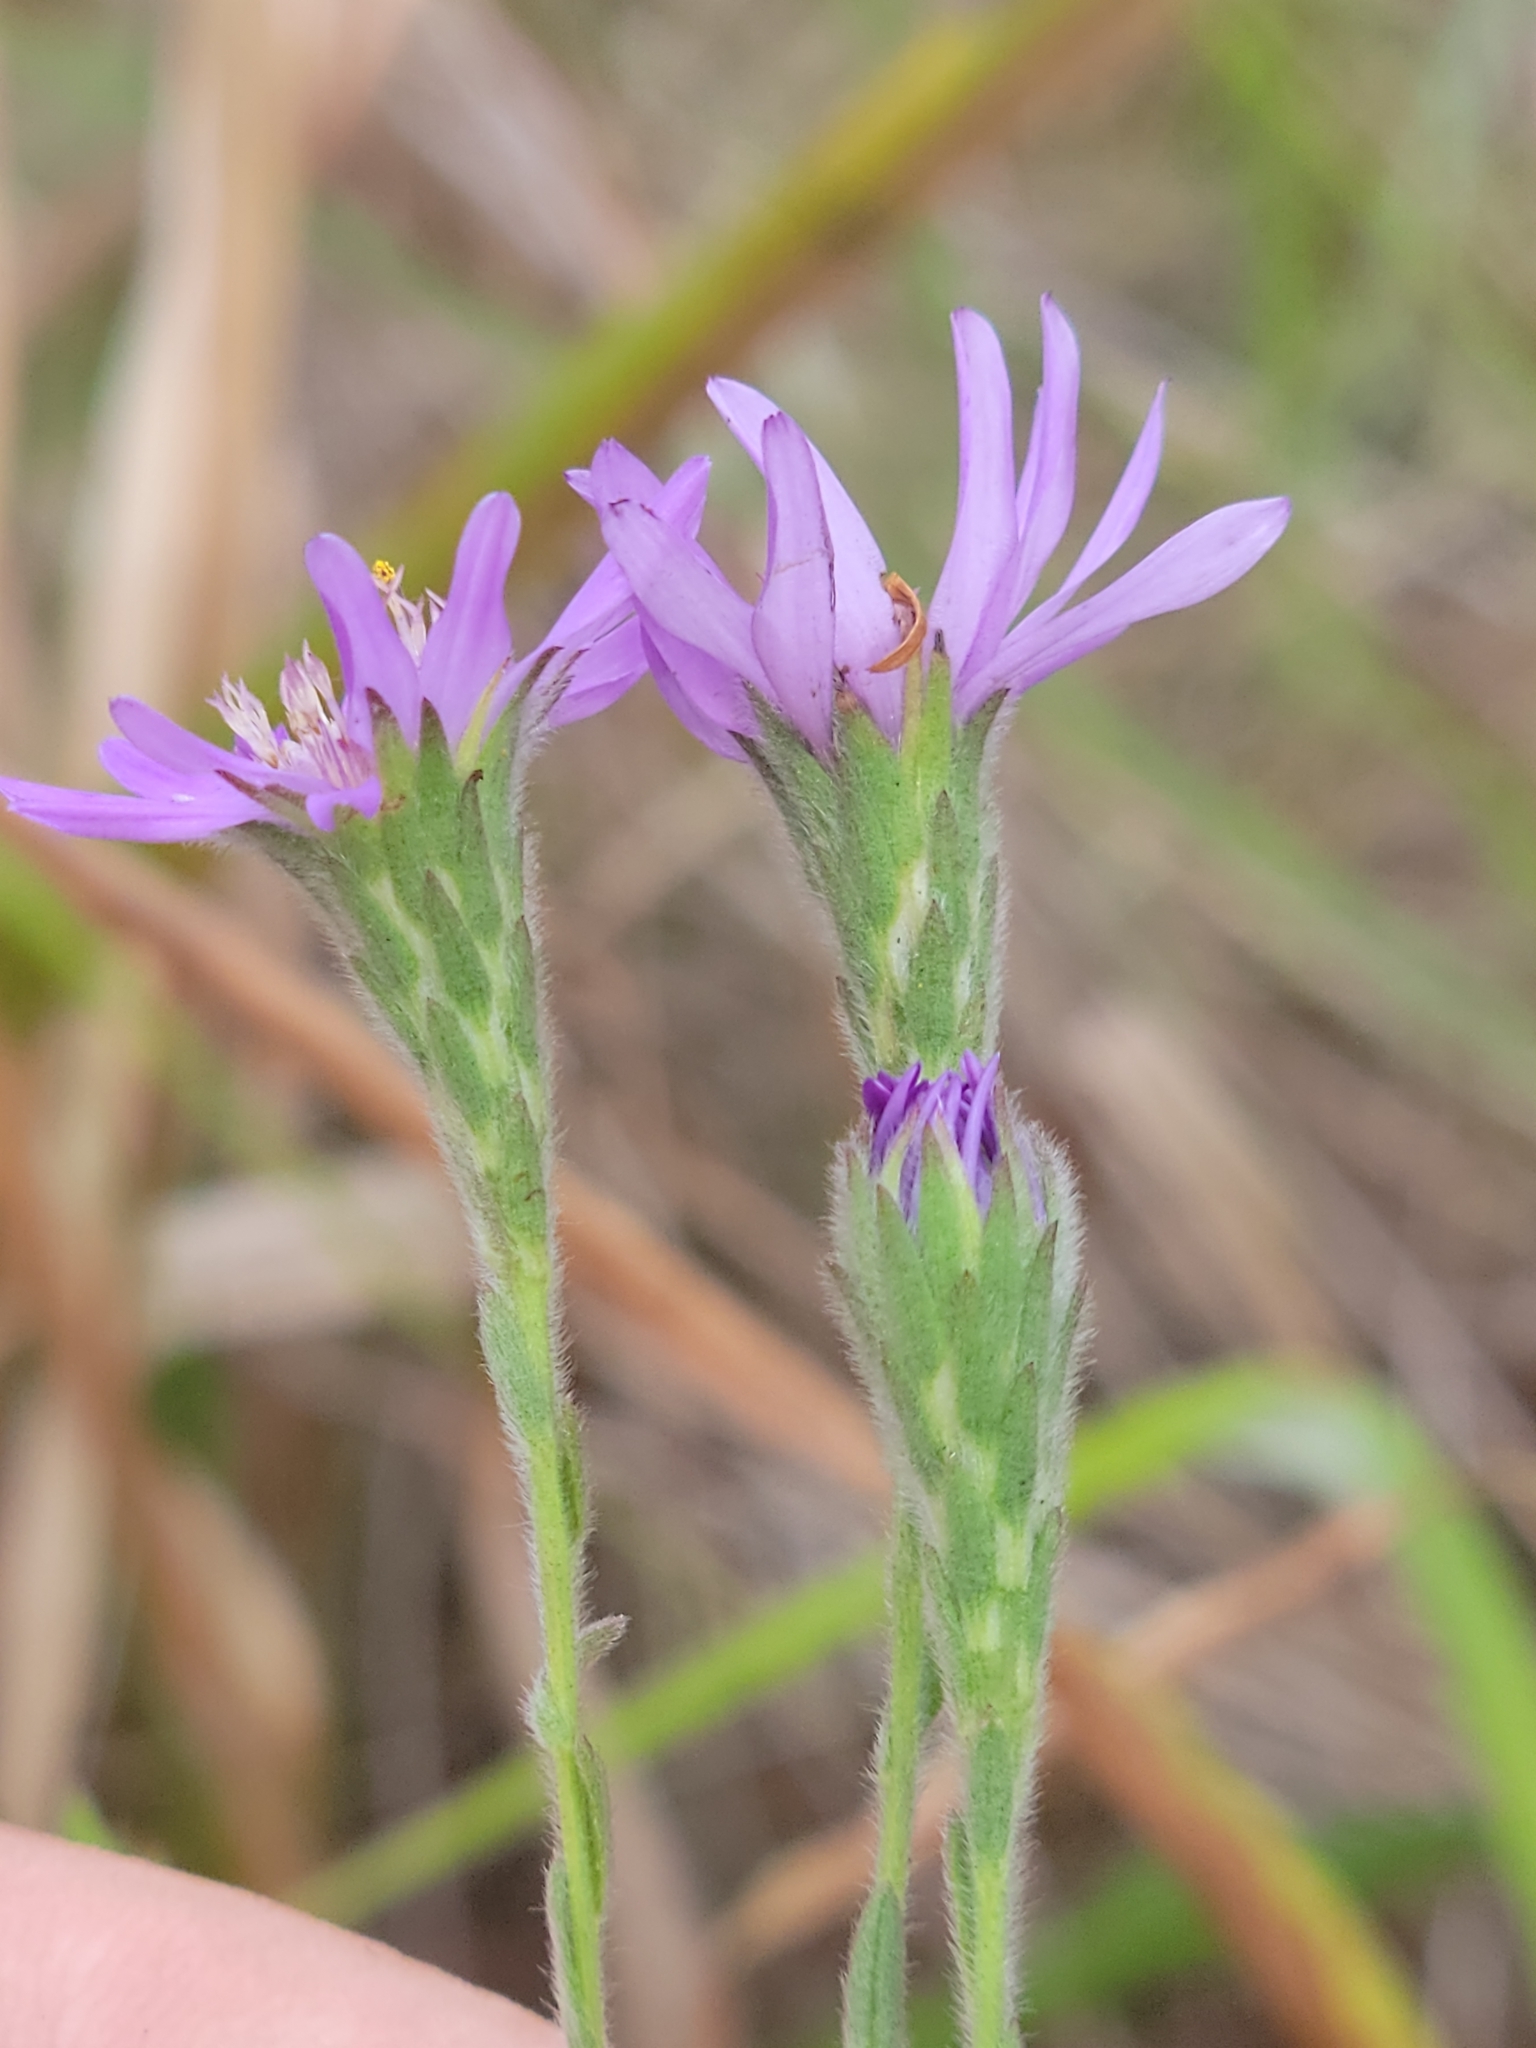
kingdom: Plantae
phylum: Tracheophyta
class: Magnoliopsida
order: Asterales
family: Asteraceae
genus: Symphyotrichum
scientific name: Symphyotrichum concolor
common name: Eastern silver aster
